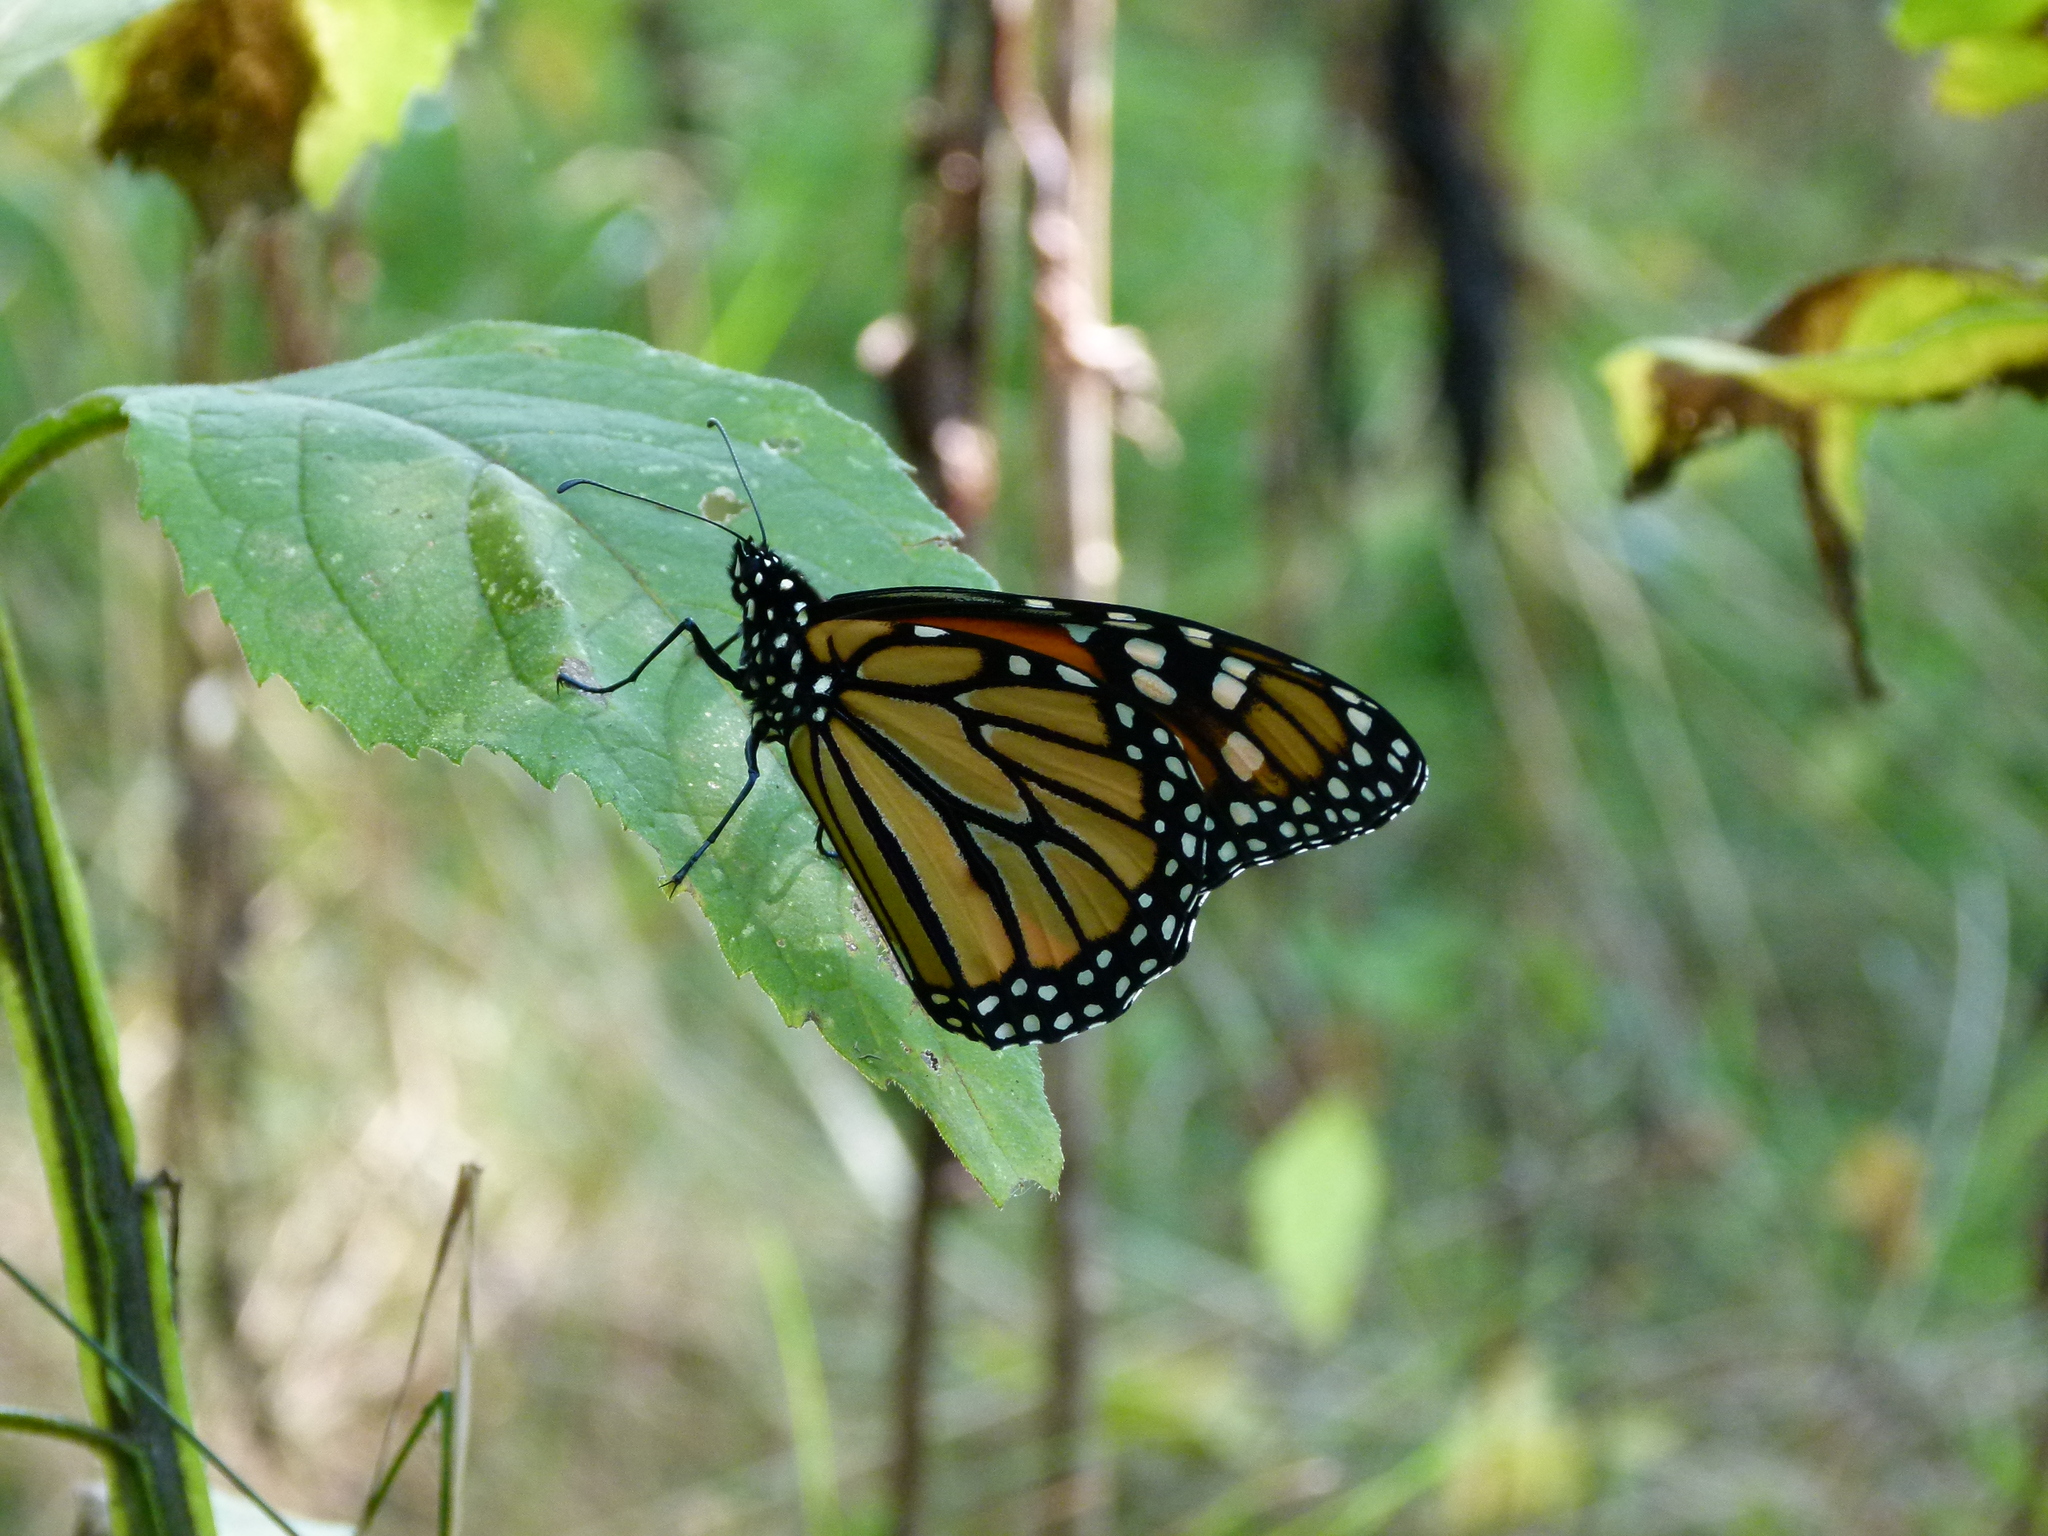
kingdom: Animalia
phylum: Arthropoda
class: Insecta
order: Lepidoptera
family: Nymphalidae
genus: Danaus
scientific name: Danaus plexippus
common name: Monarch
